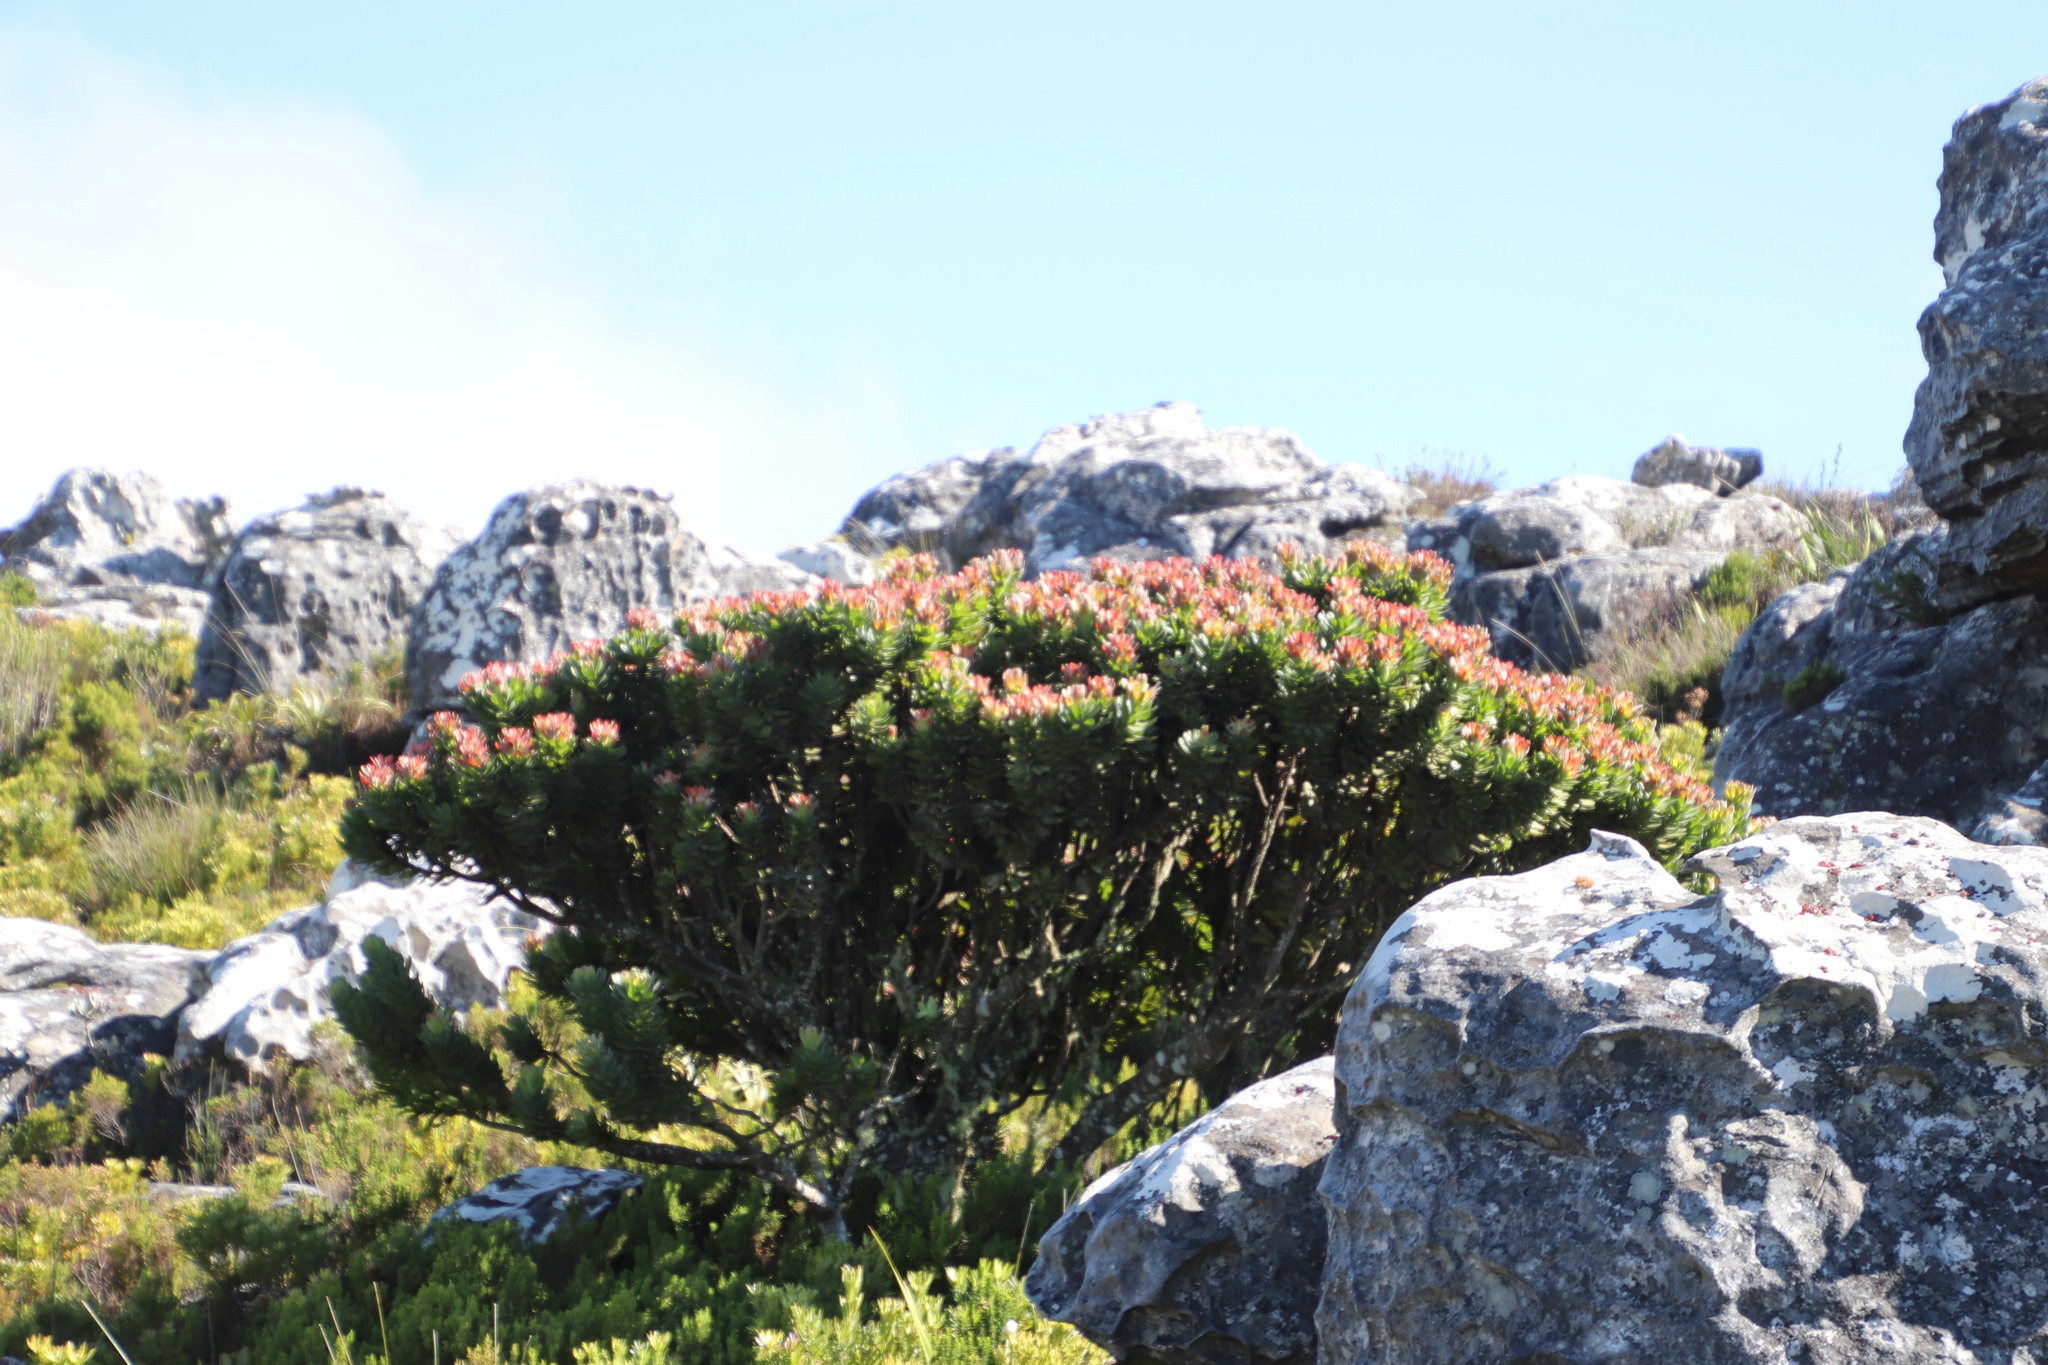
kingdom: Plantae
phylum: Tracheophyta
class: Magnoliopsida
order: Proteales
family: Proteaceae
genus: Mimetes
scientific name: Mimetes fimbriifolius
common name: Fringed bottlebrush
